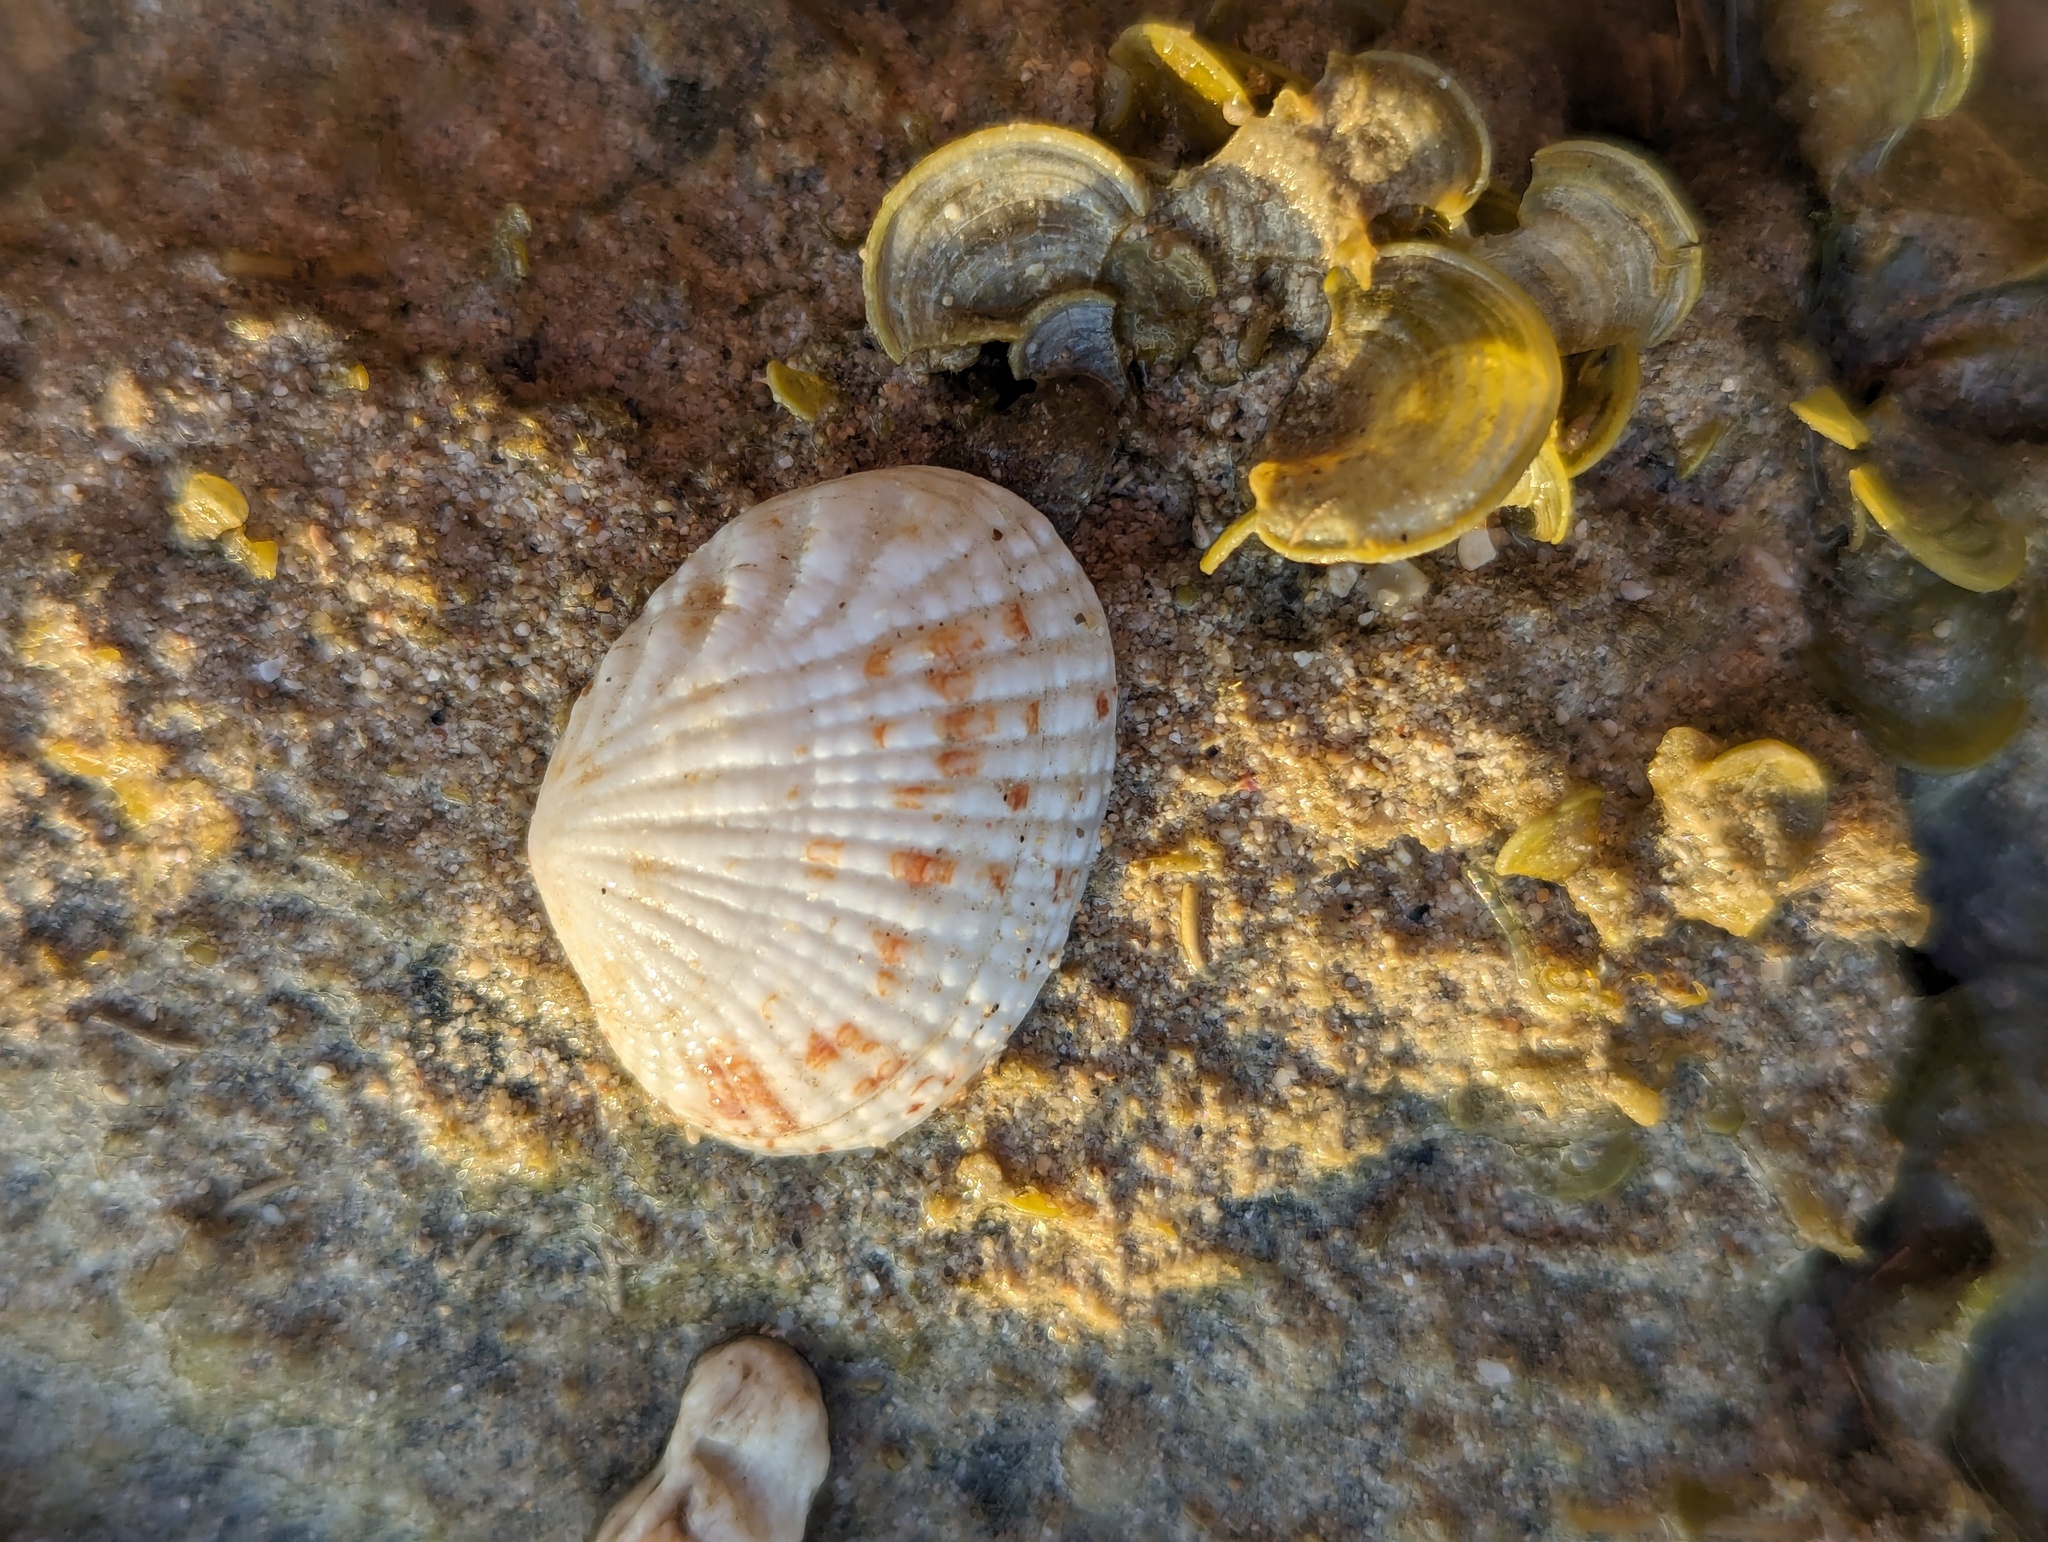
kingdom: Animalia
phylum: Mollusca
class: Bivalvia
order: Venerida
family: Veneridae
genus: Gafrarium
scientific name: Gafrarium pectinatum
